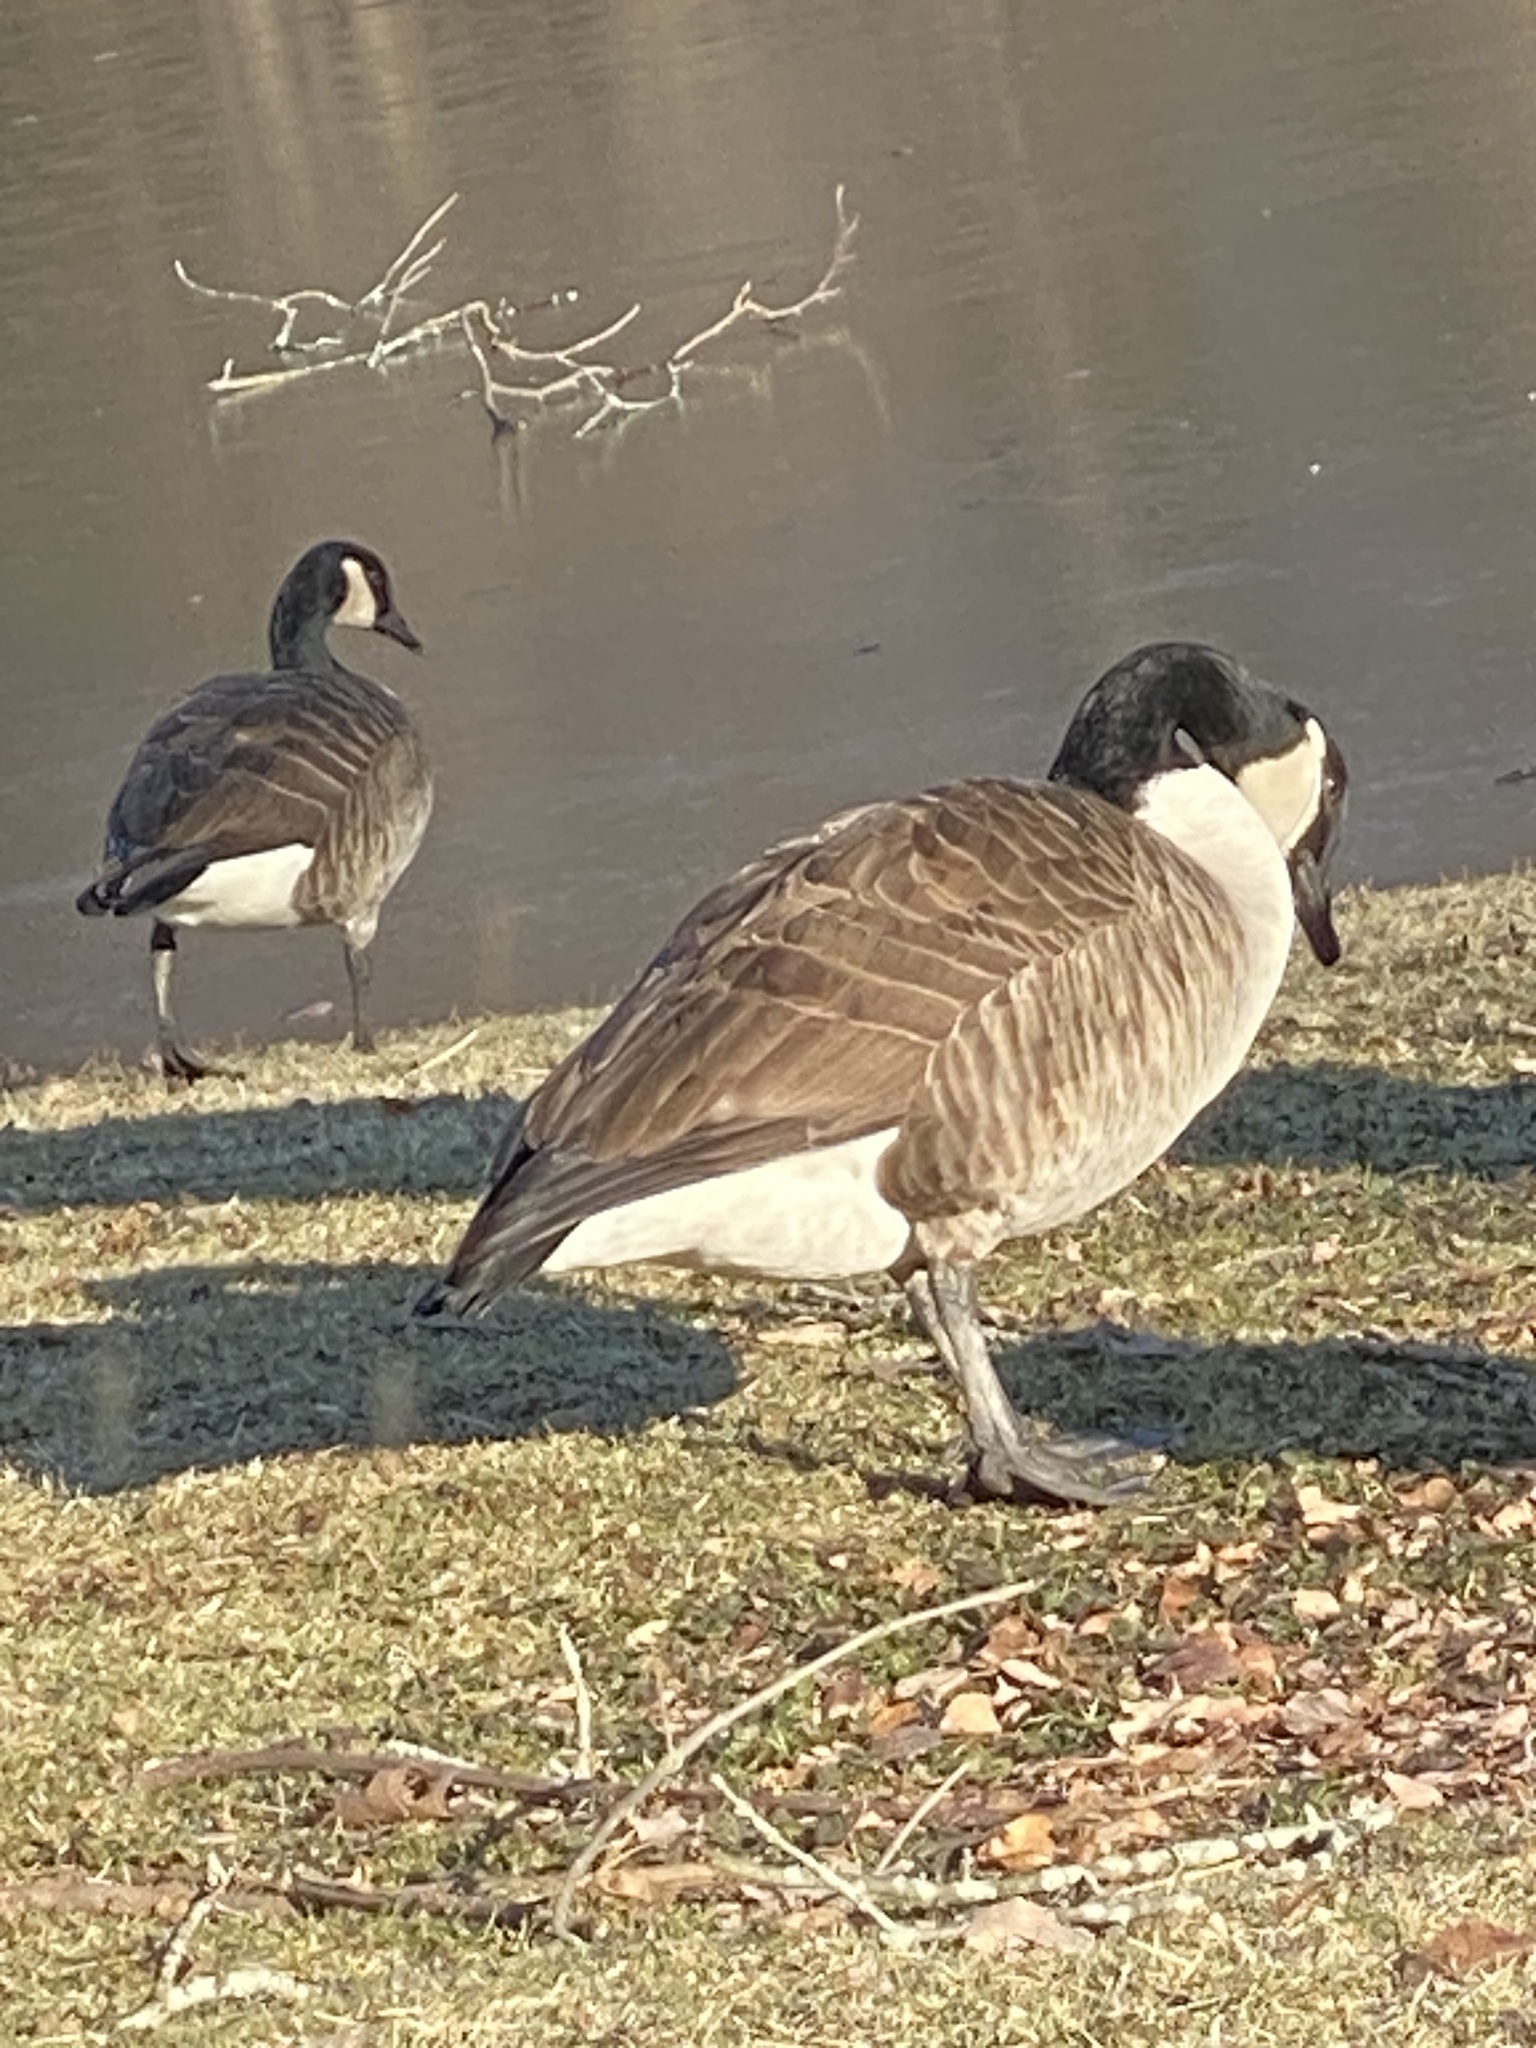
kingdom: Animalia
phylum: Chordata
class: Aves
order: Anseriformes
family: Anatidae
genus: Branta
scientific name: Branta canadensis
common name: Canada goose
